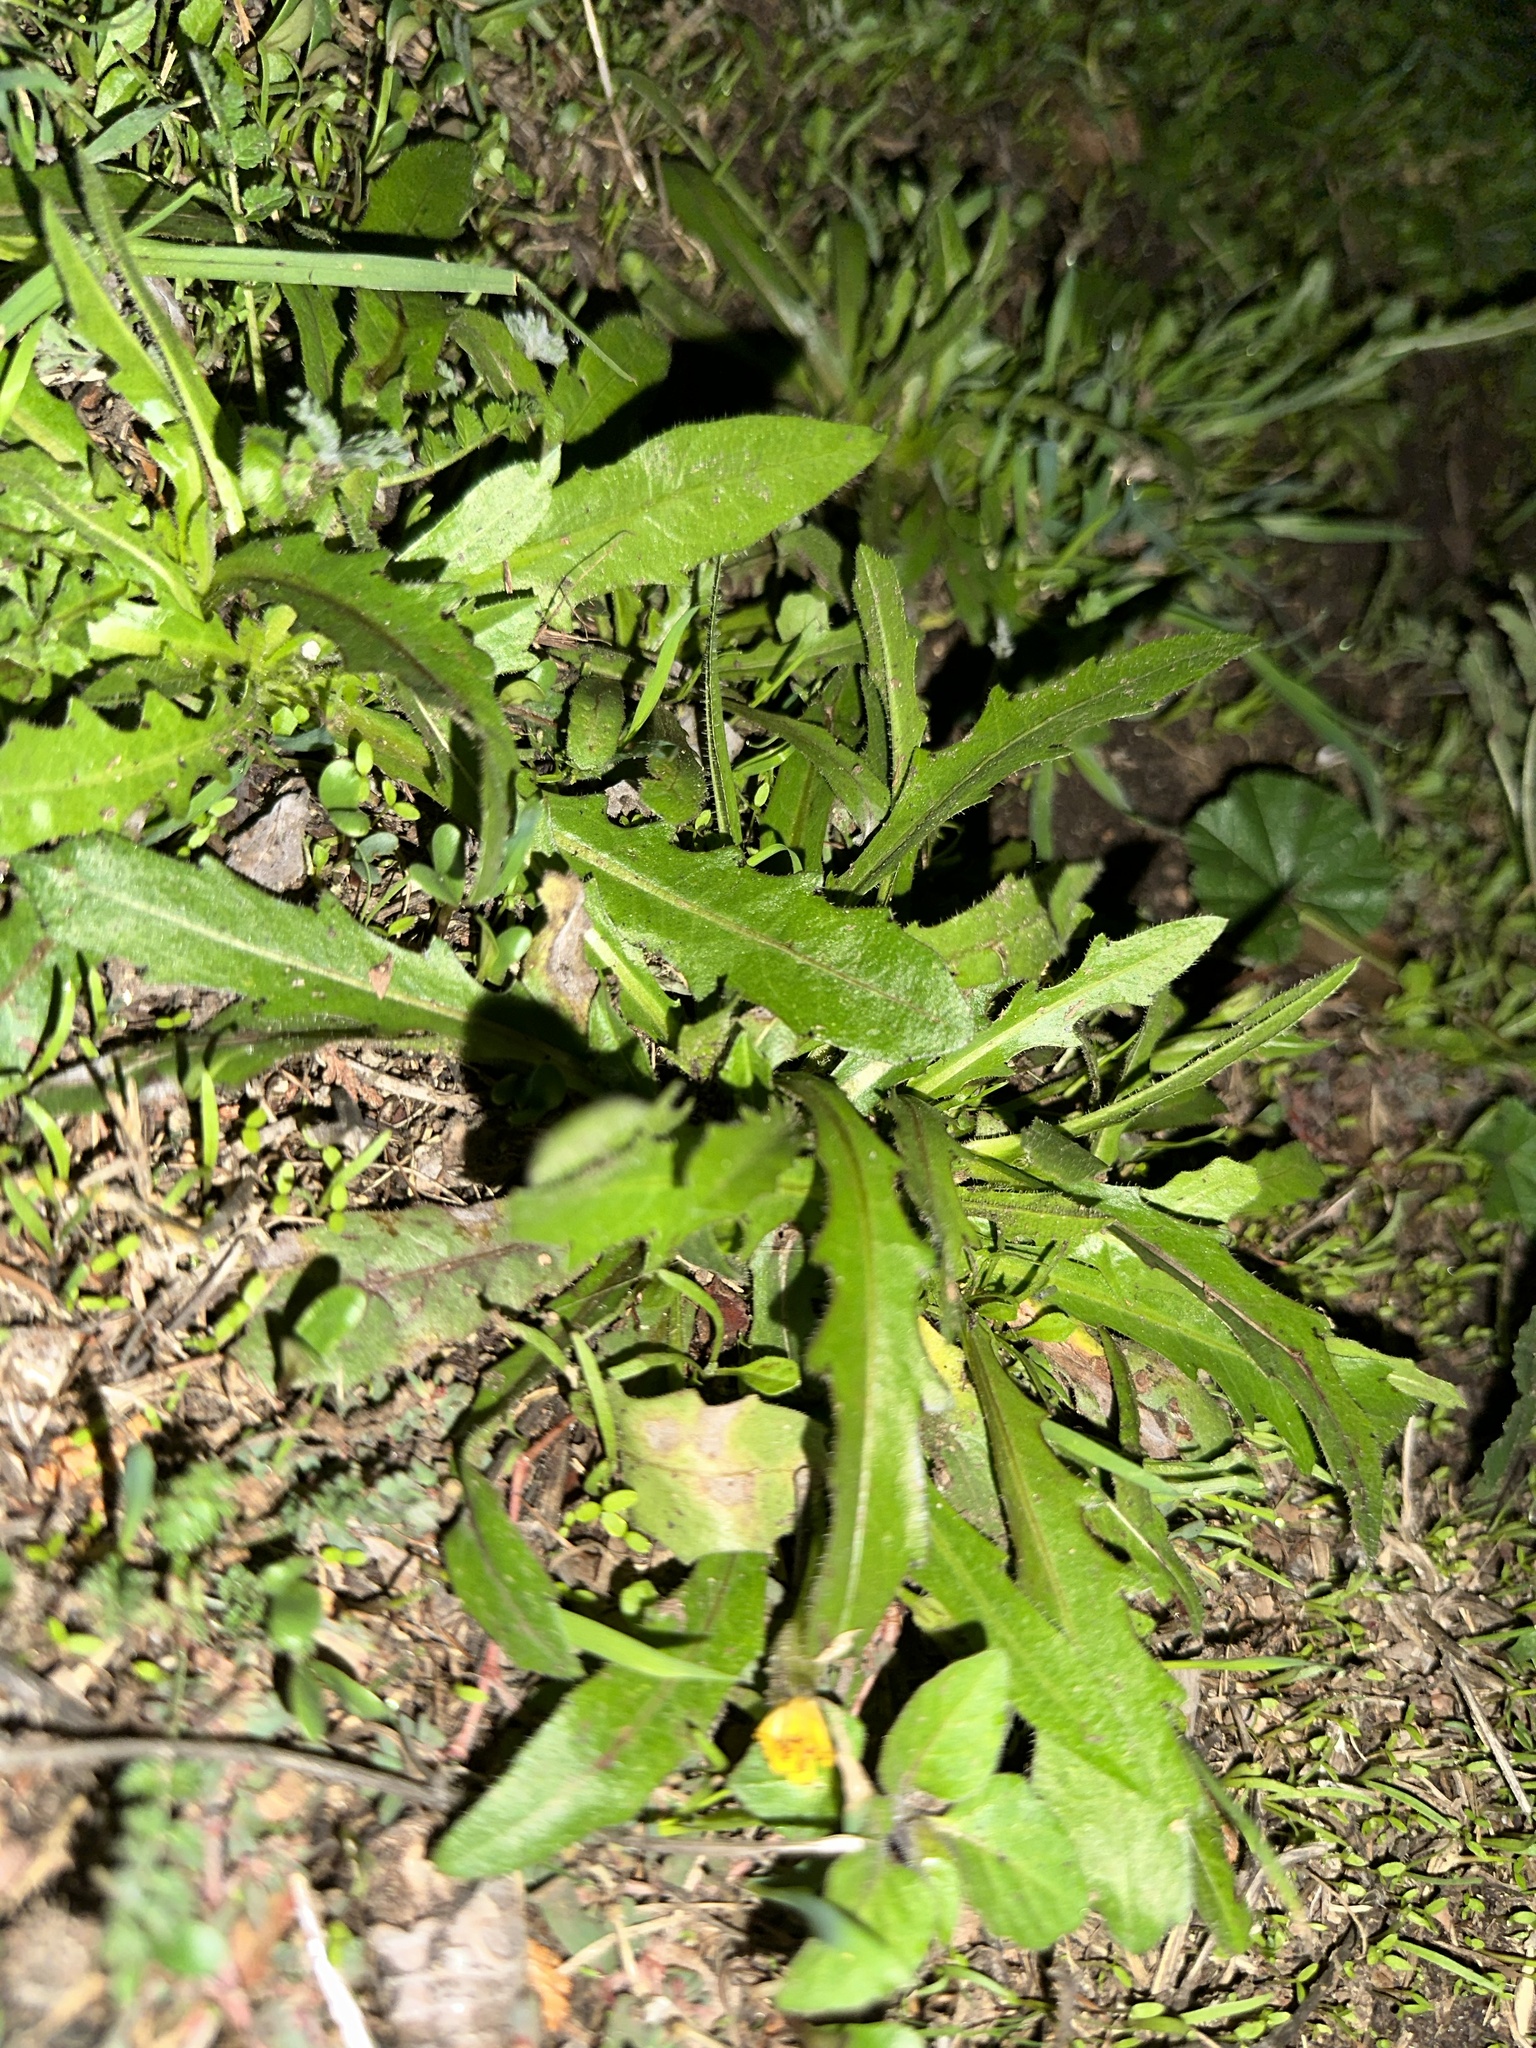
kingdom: Plantae
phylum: Tracheophyta
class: Magnoliopsida
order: Brassicales
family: Brassicaceae
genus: Capsella
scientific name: Capsella bursa-pastoris
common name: Shepherd's purse
